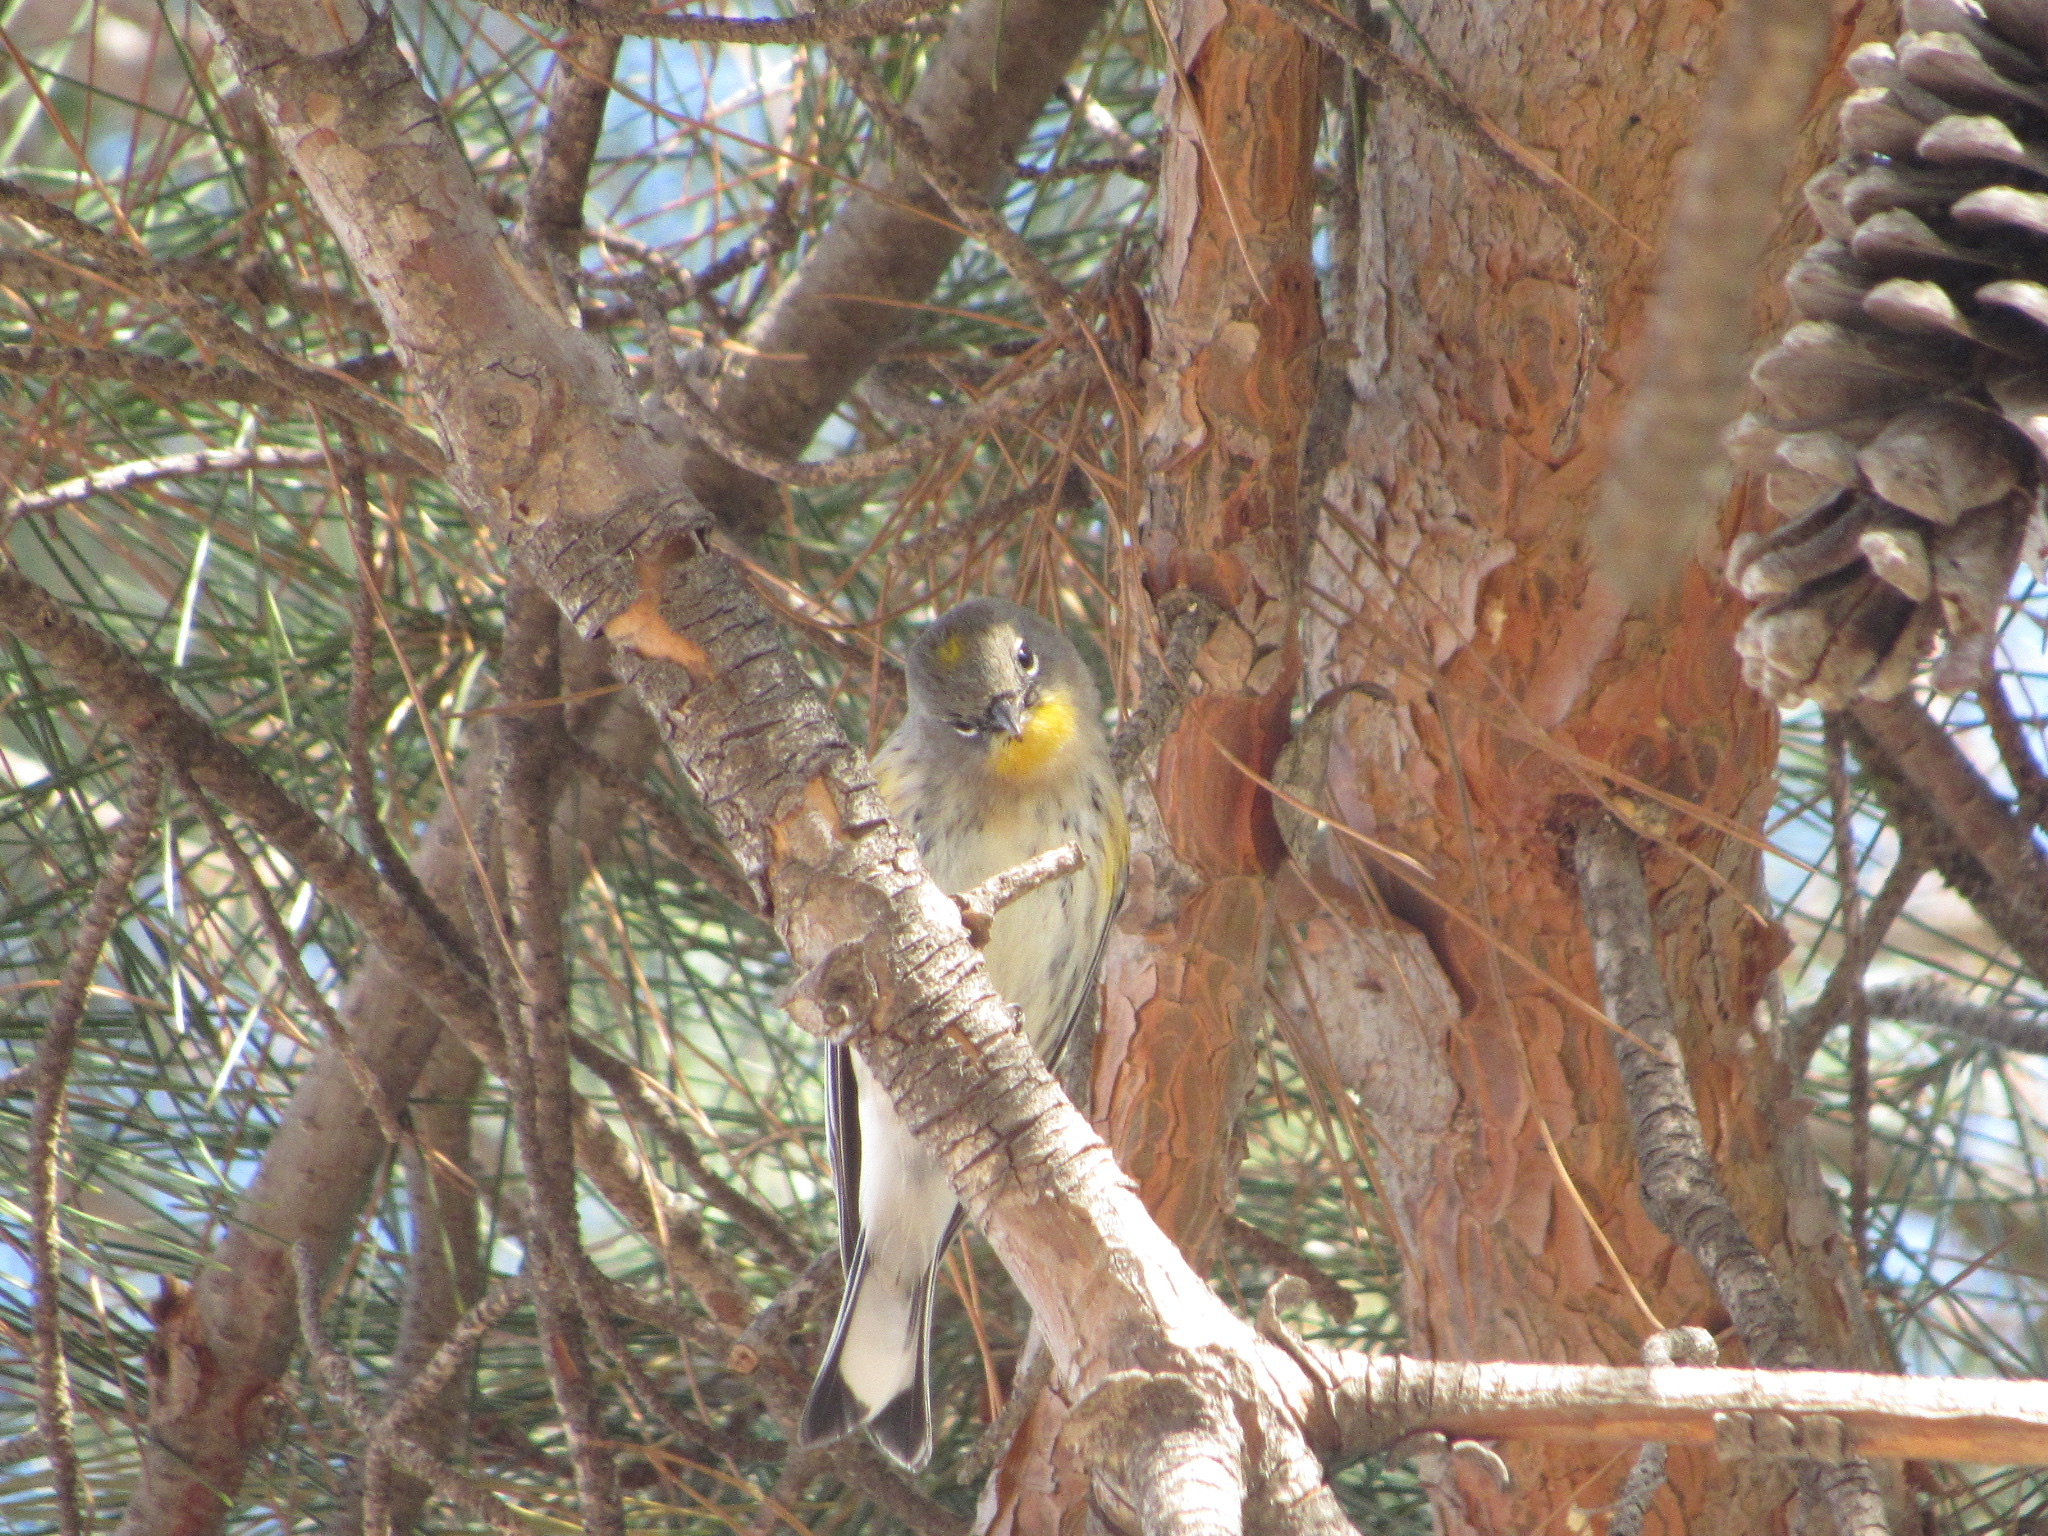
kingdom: Animalia
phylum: Chordata
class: Aves
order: Passeriformes
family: Parulidae
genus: Setophaga
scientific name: Setophaga coronata
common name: Myrtle warbler
